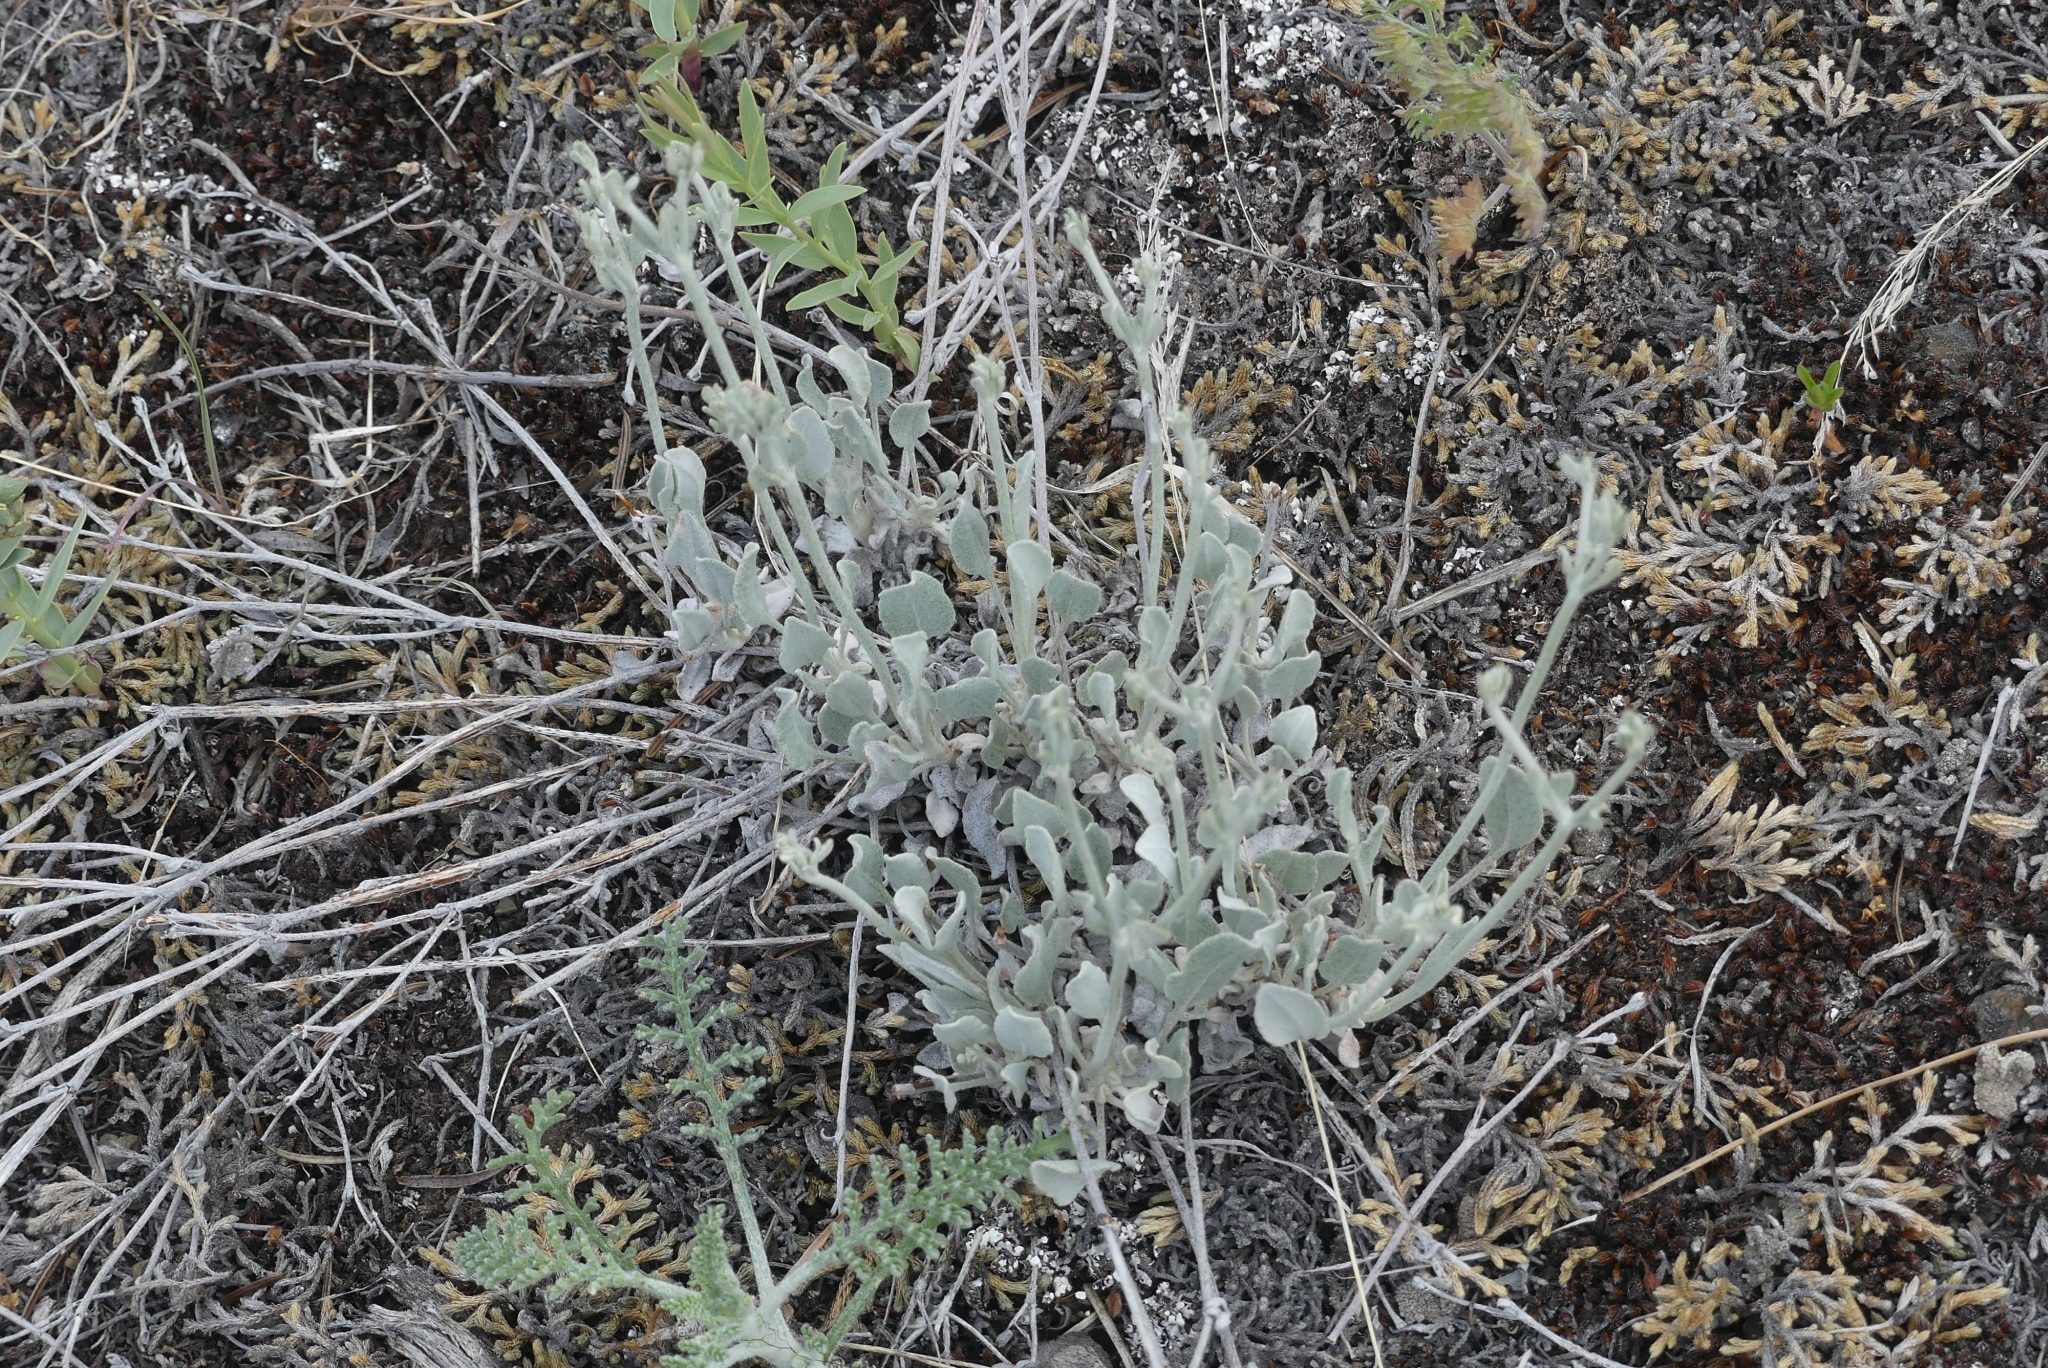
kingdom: Plantae
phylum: Tracheophyta
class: Magnoliopsida
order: Caryophyllales
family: Polygonaceae
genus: Eriogonum
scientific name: Eriogonum niveum
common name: Snow wild buckwheat
